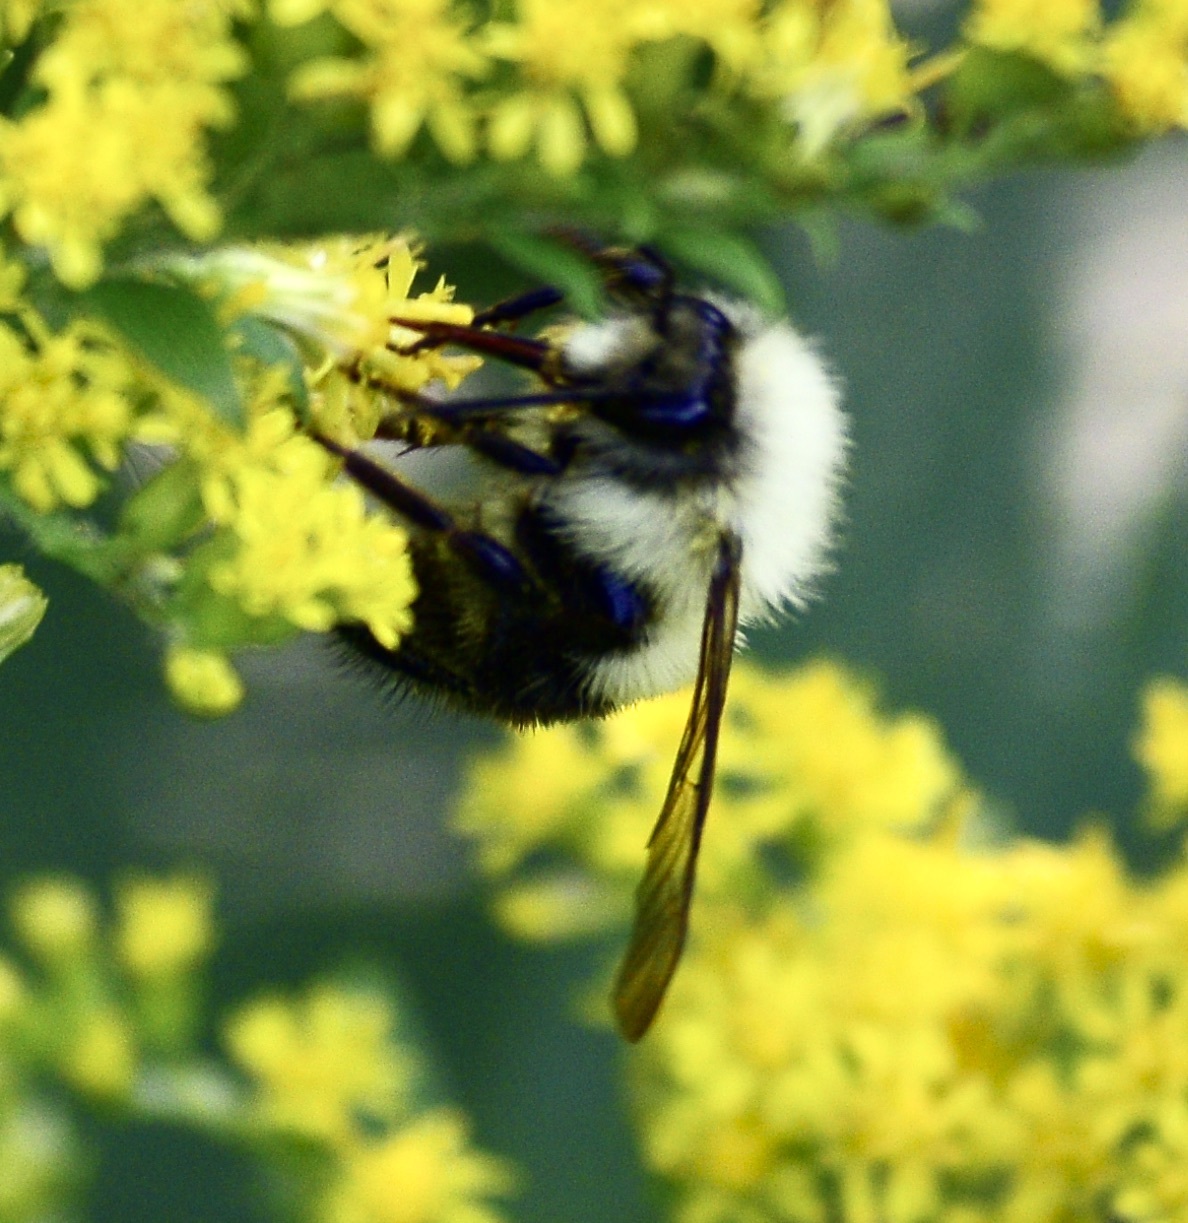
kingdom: Animalia
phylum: Arthropoda
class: Insecta
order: Hymenoptera
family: Apidae
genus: Pyrobombus
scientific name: Pyrobombus
